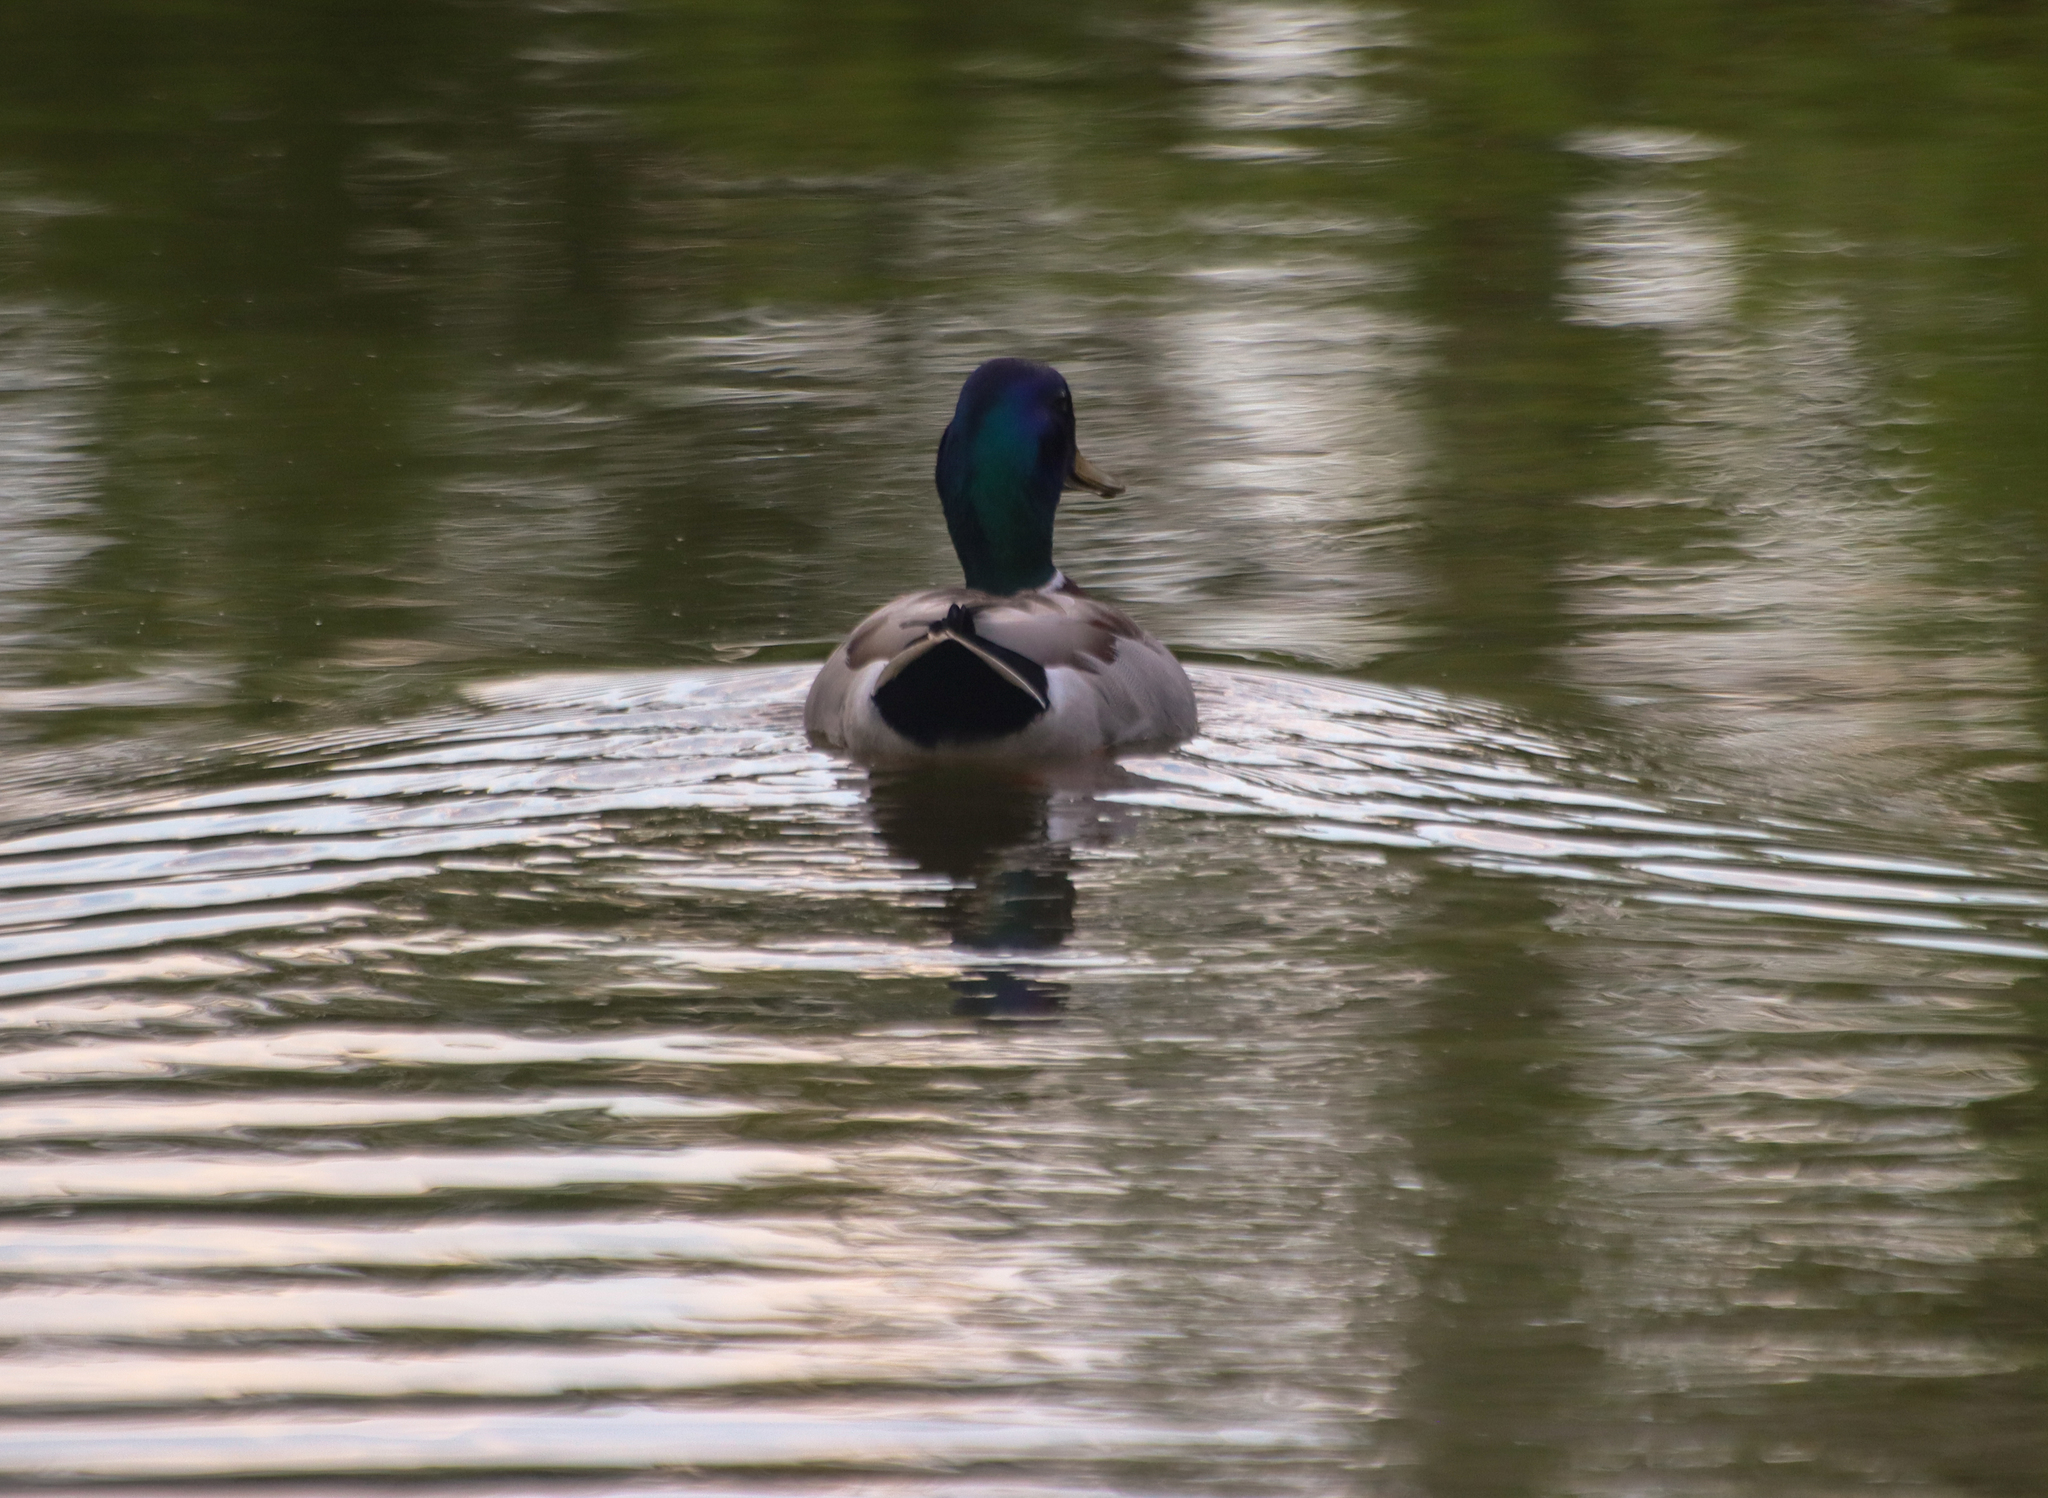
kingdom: Animalia
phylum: Chordata
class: Aves
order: Anseriformes
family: Anatidae
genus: Anas
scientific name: Anas platyrhynchos
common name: Mallard
